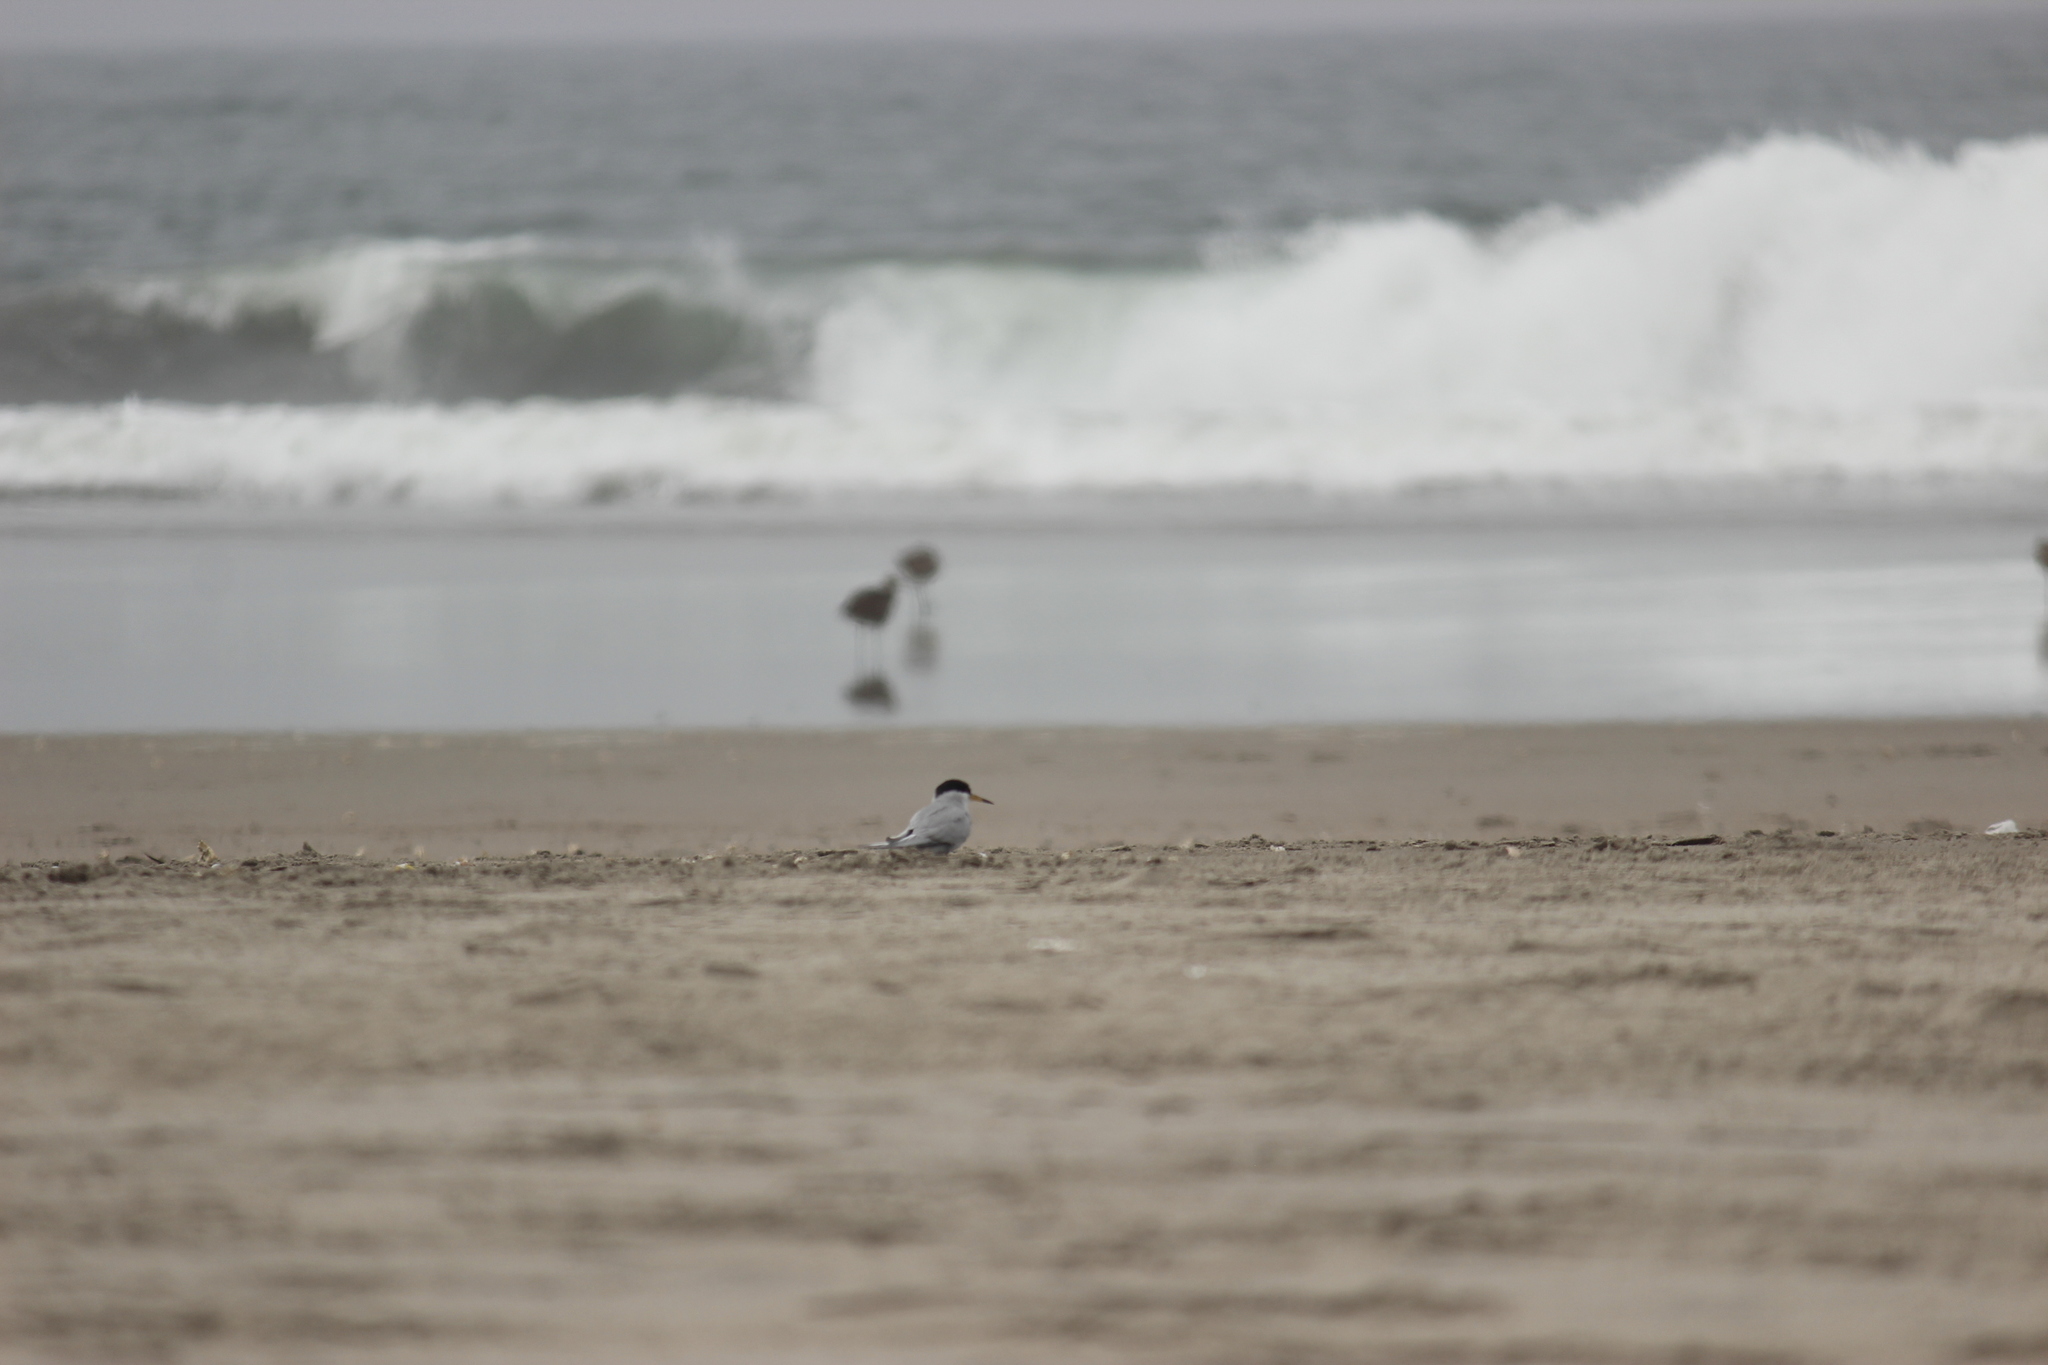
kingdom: Animalia
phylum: Chordata
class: Aves
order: Charadriiformes
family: Laridae
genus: Sternula
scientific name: Sternula lorata
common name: Peruvian tern
